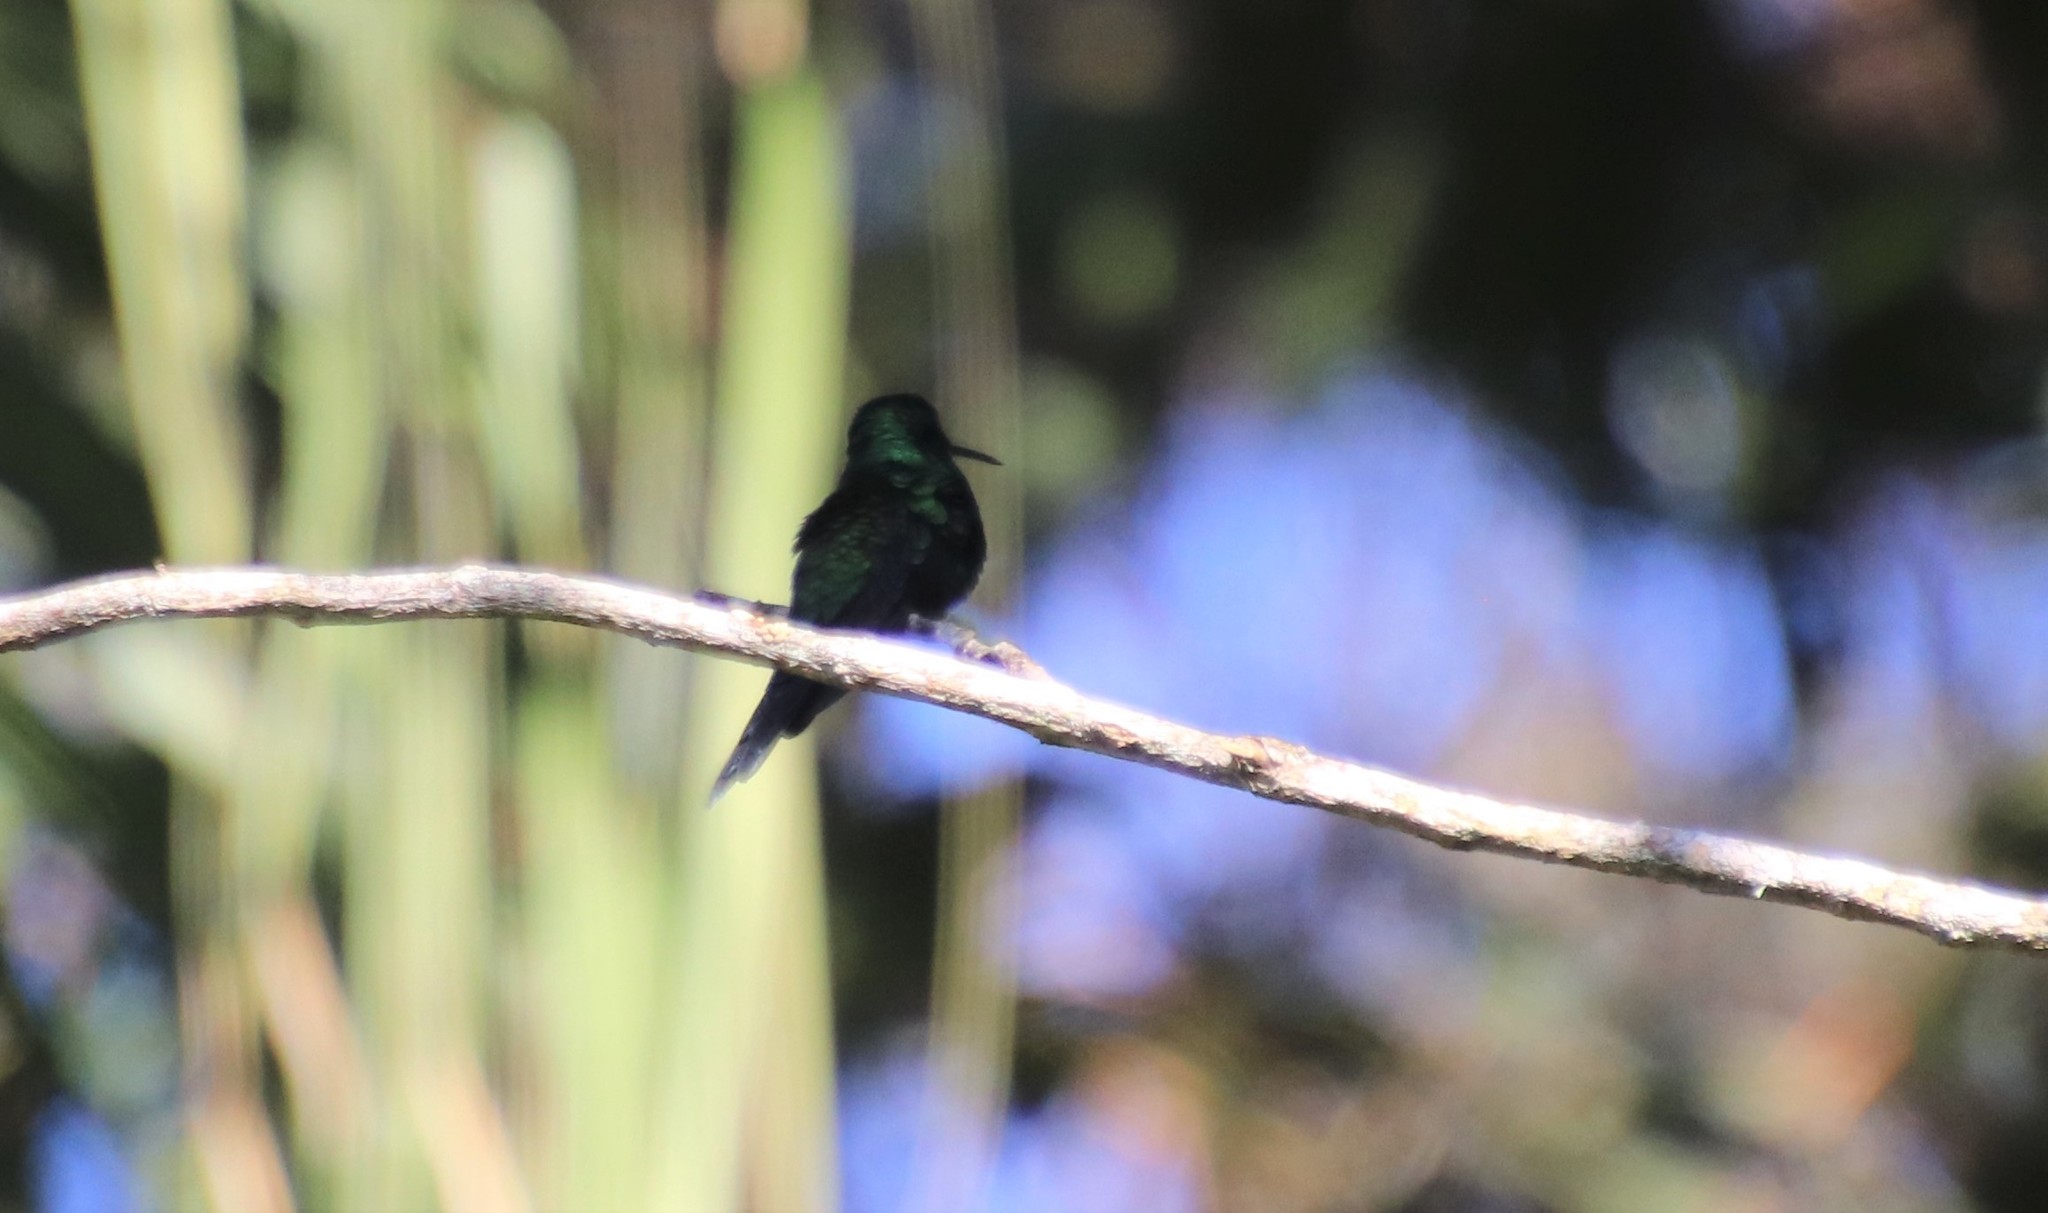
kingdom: Animalia
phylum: Chordata
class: Aves
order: Apodiformes
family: Trochilidae
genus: Thalurania
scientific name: Thalurania glaucopis
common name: Violet-capped woodnymph
